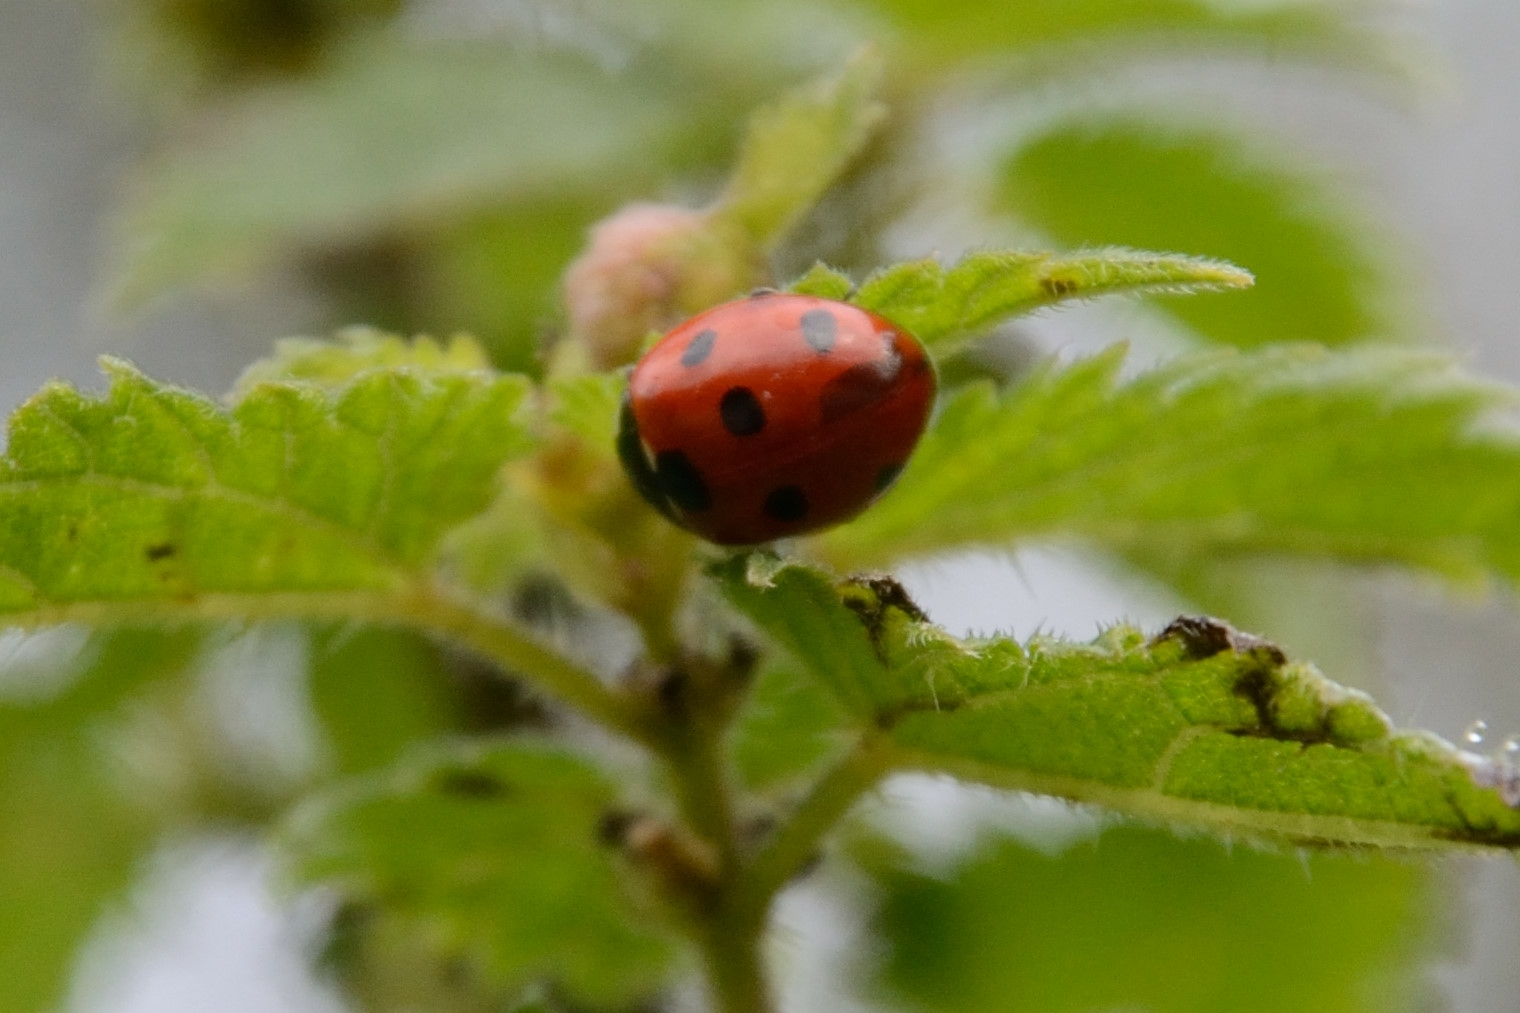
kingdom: Animalia
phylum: Arthropoda
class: Insecta
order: Coleoptera
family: Coccinellidae
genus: Coccinella
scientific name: Coccinella septempunctata
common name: Sevenspotted lady beetle
